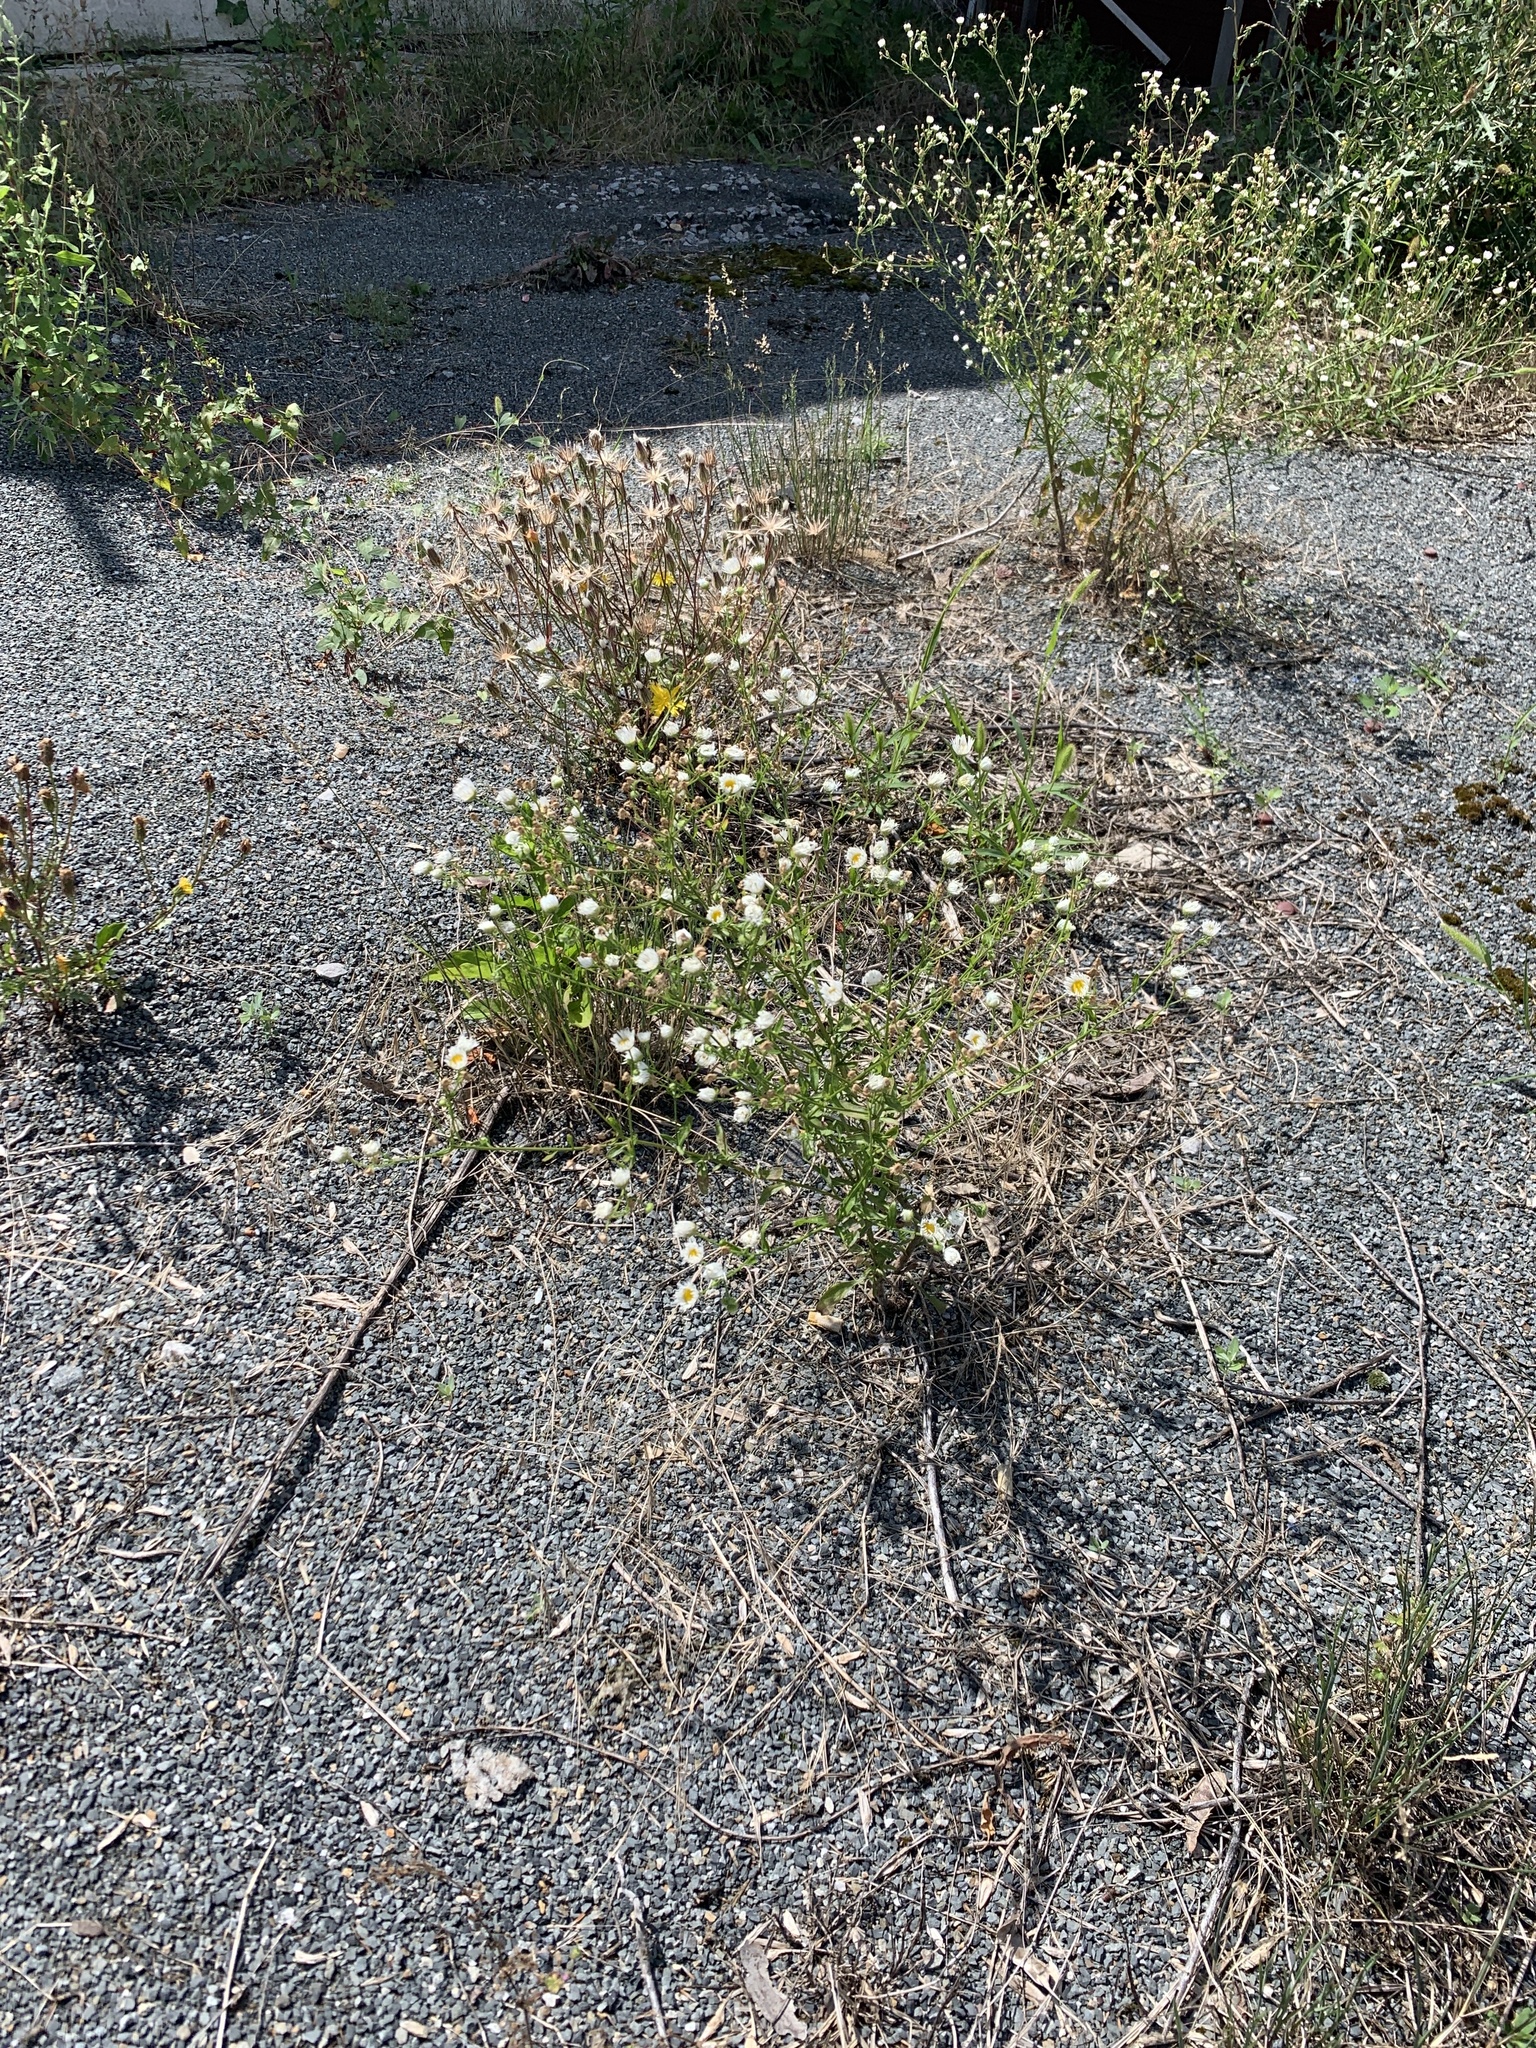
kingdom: Plantae
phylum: Tracheophyta
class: Magnoliopsida
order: Asterales
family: Asteraceae
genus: Erigeron
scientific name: Erigeron annuus
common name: Tall fleabane
